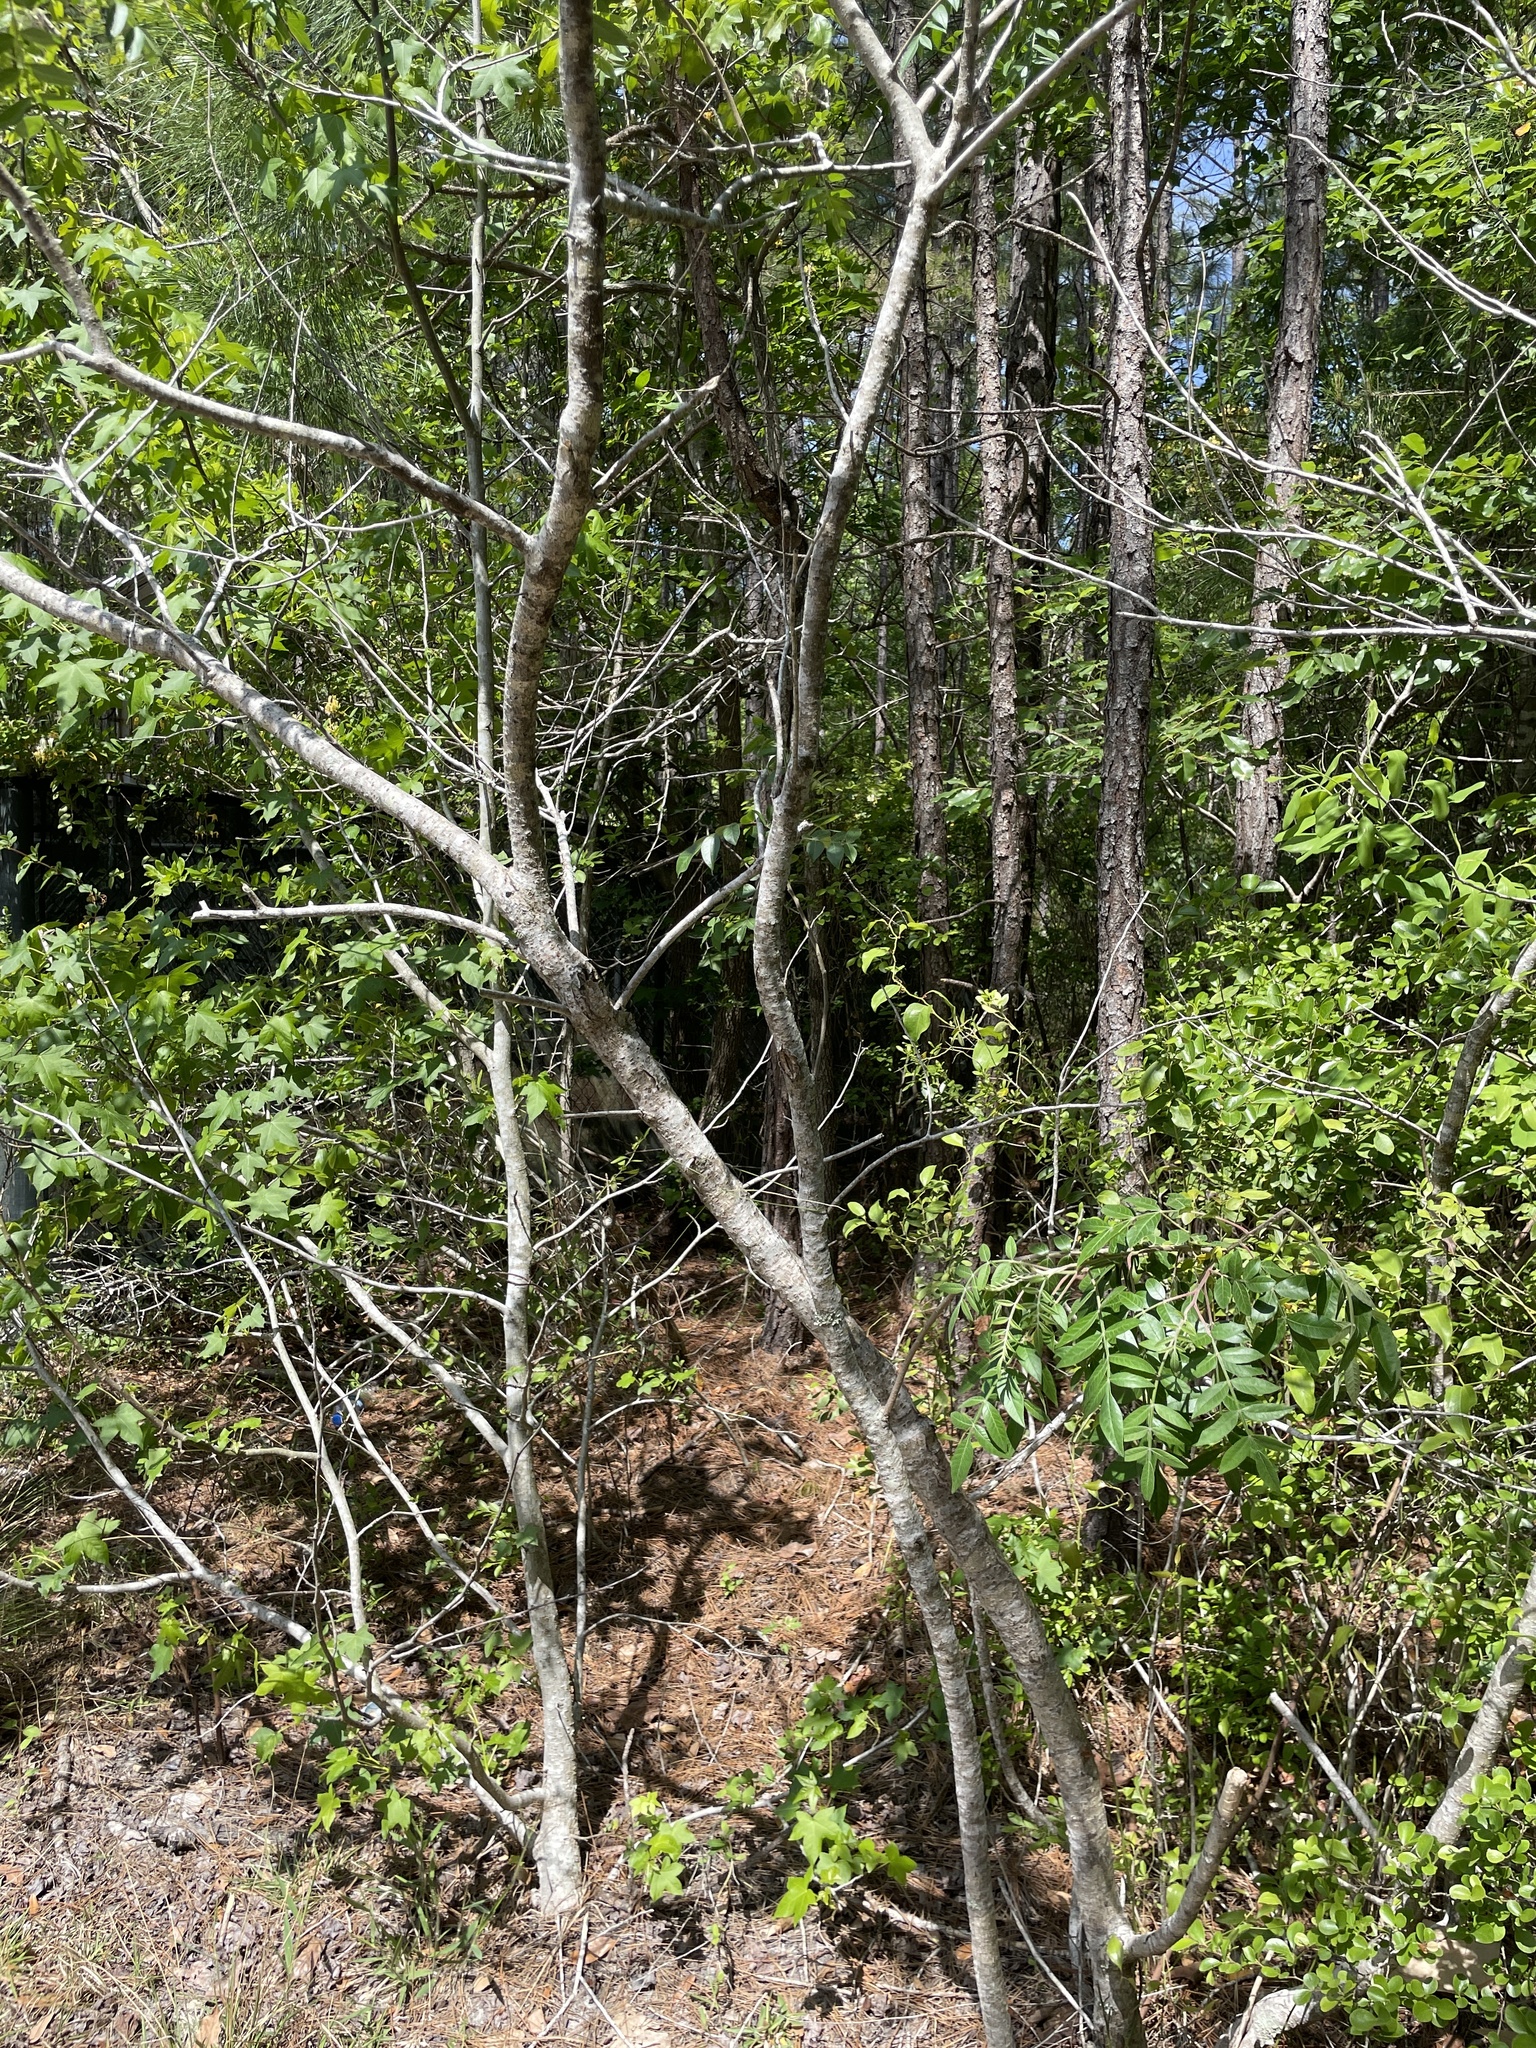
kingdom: Plantae
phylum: Tracheophyta
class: Magnoliopsida
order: Sapindales
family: Anacardiaceae
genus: Rhus
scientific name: Rhus copallina
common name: Shining sumac
